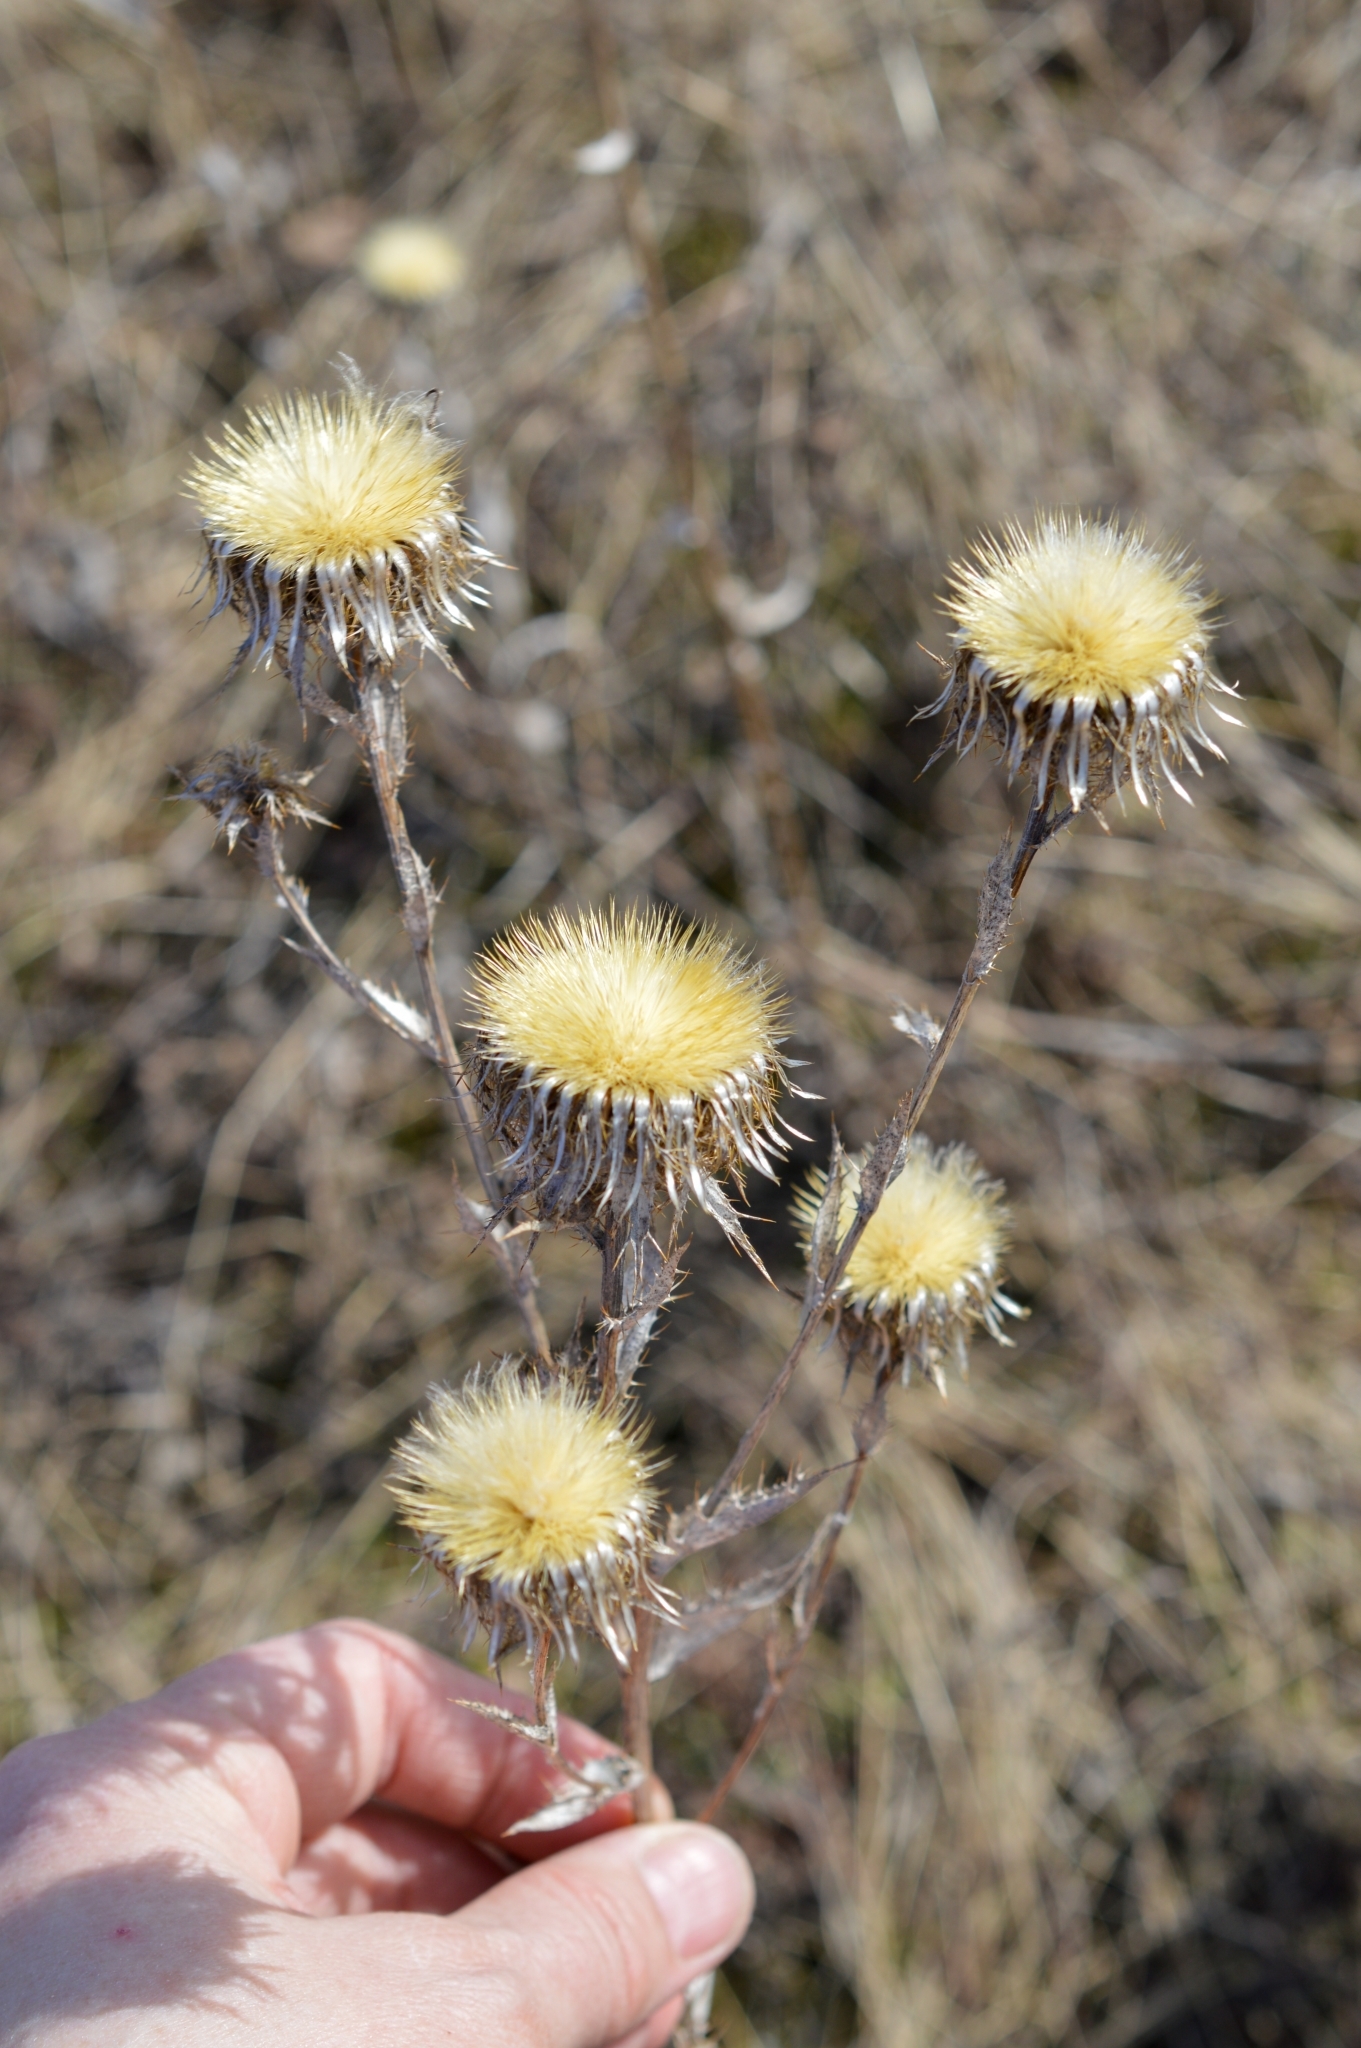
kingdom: Plantae
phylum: Tracheophyta
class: Magnoliopsida
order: Asterales
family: Asteraceae
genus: Carlina
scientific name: Carlina biebersteinii
